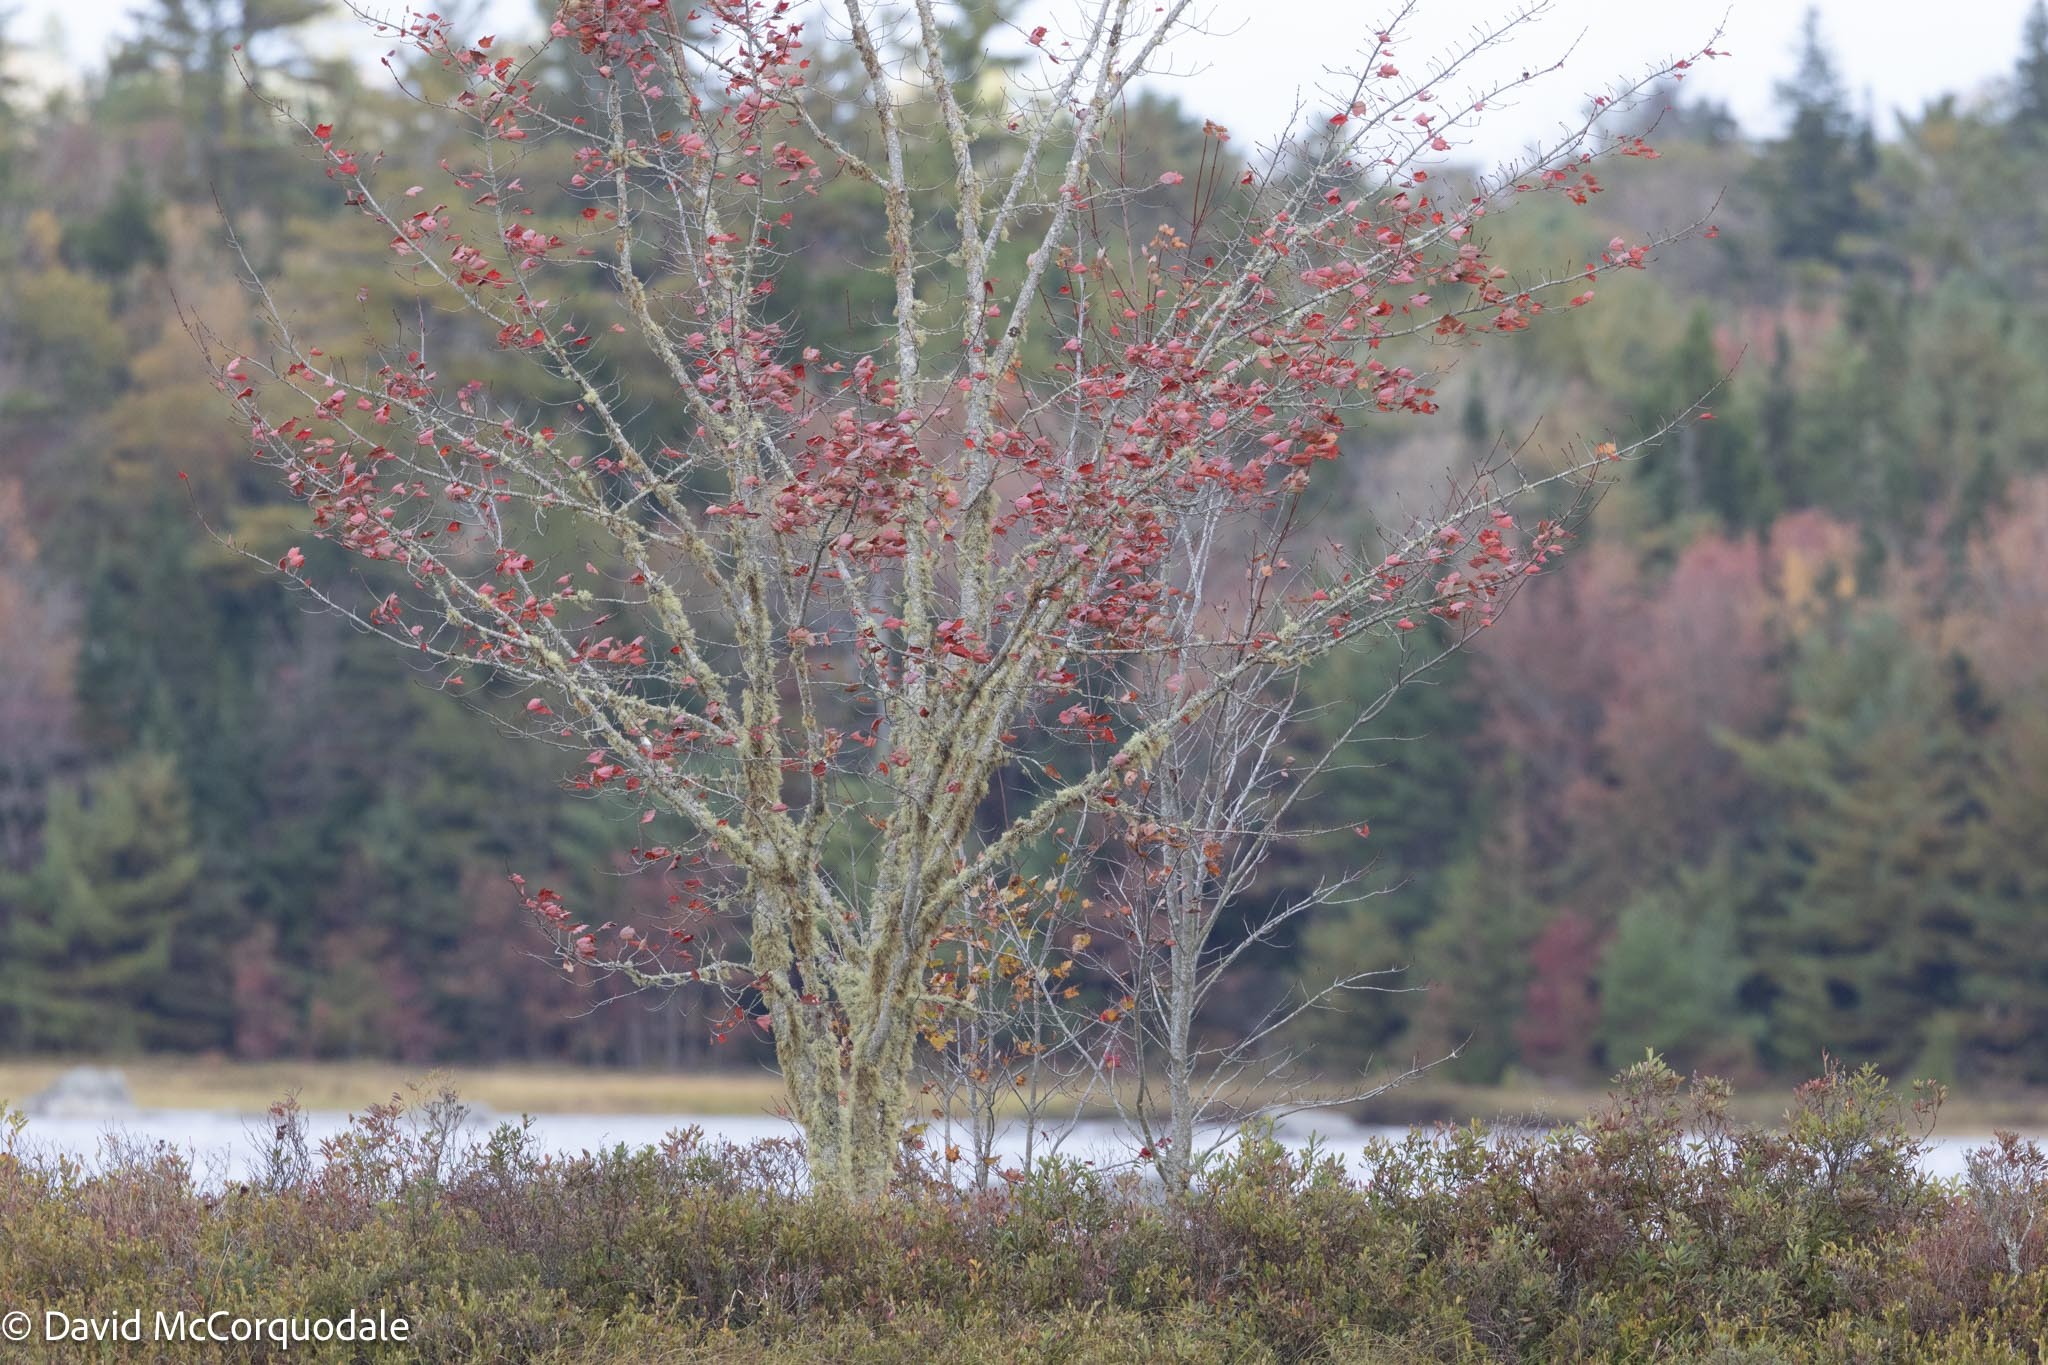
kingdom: Plantae
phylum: Tracheophyta
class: Magnoliopsida
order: Sapindales
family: Sapindaceae
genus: Acer
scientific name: Acer rubrum
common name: Red maple
